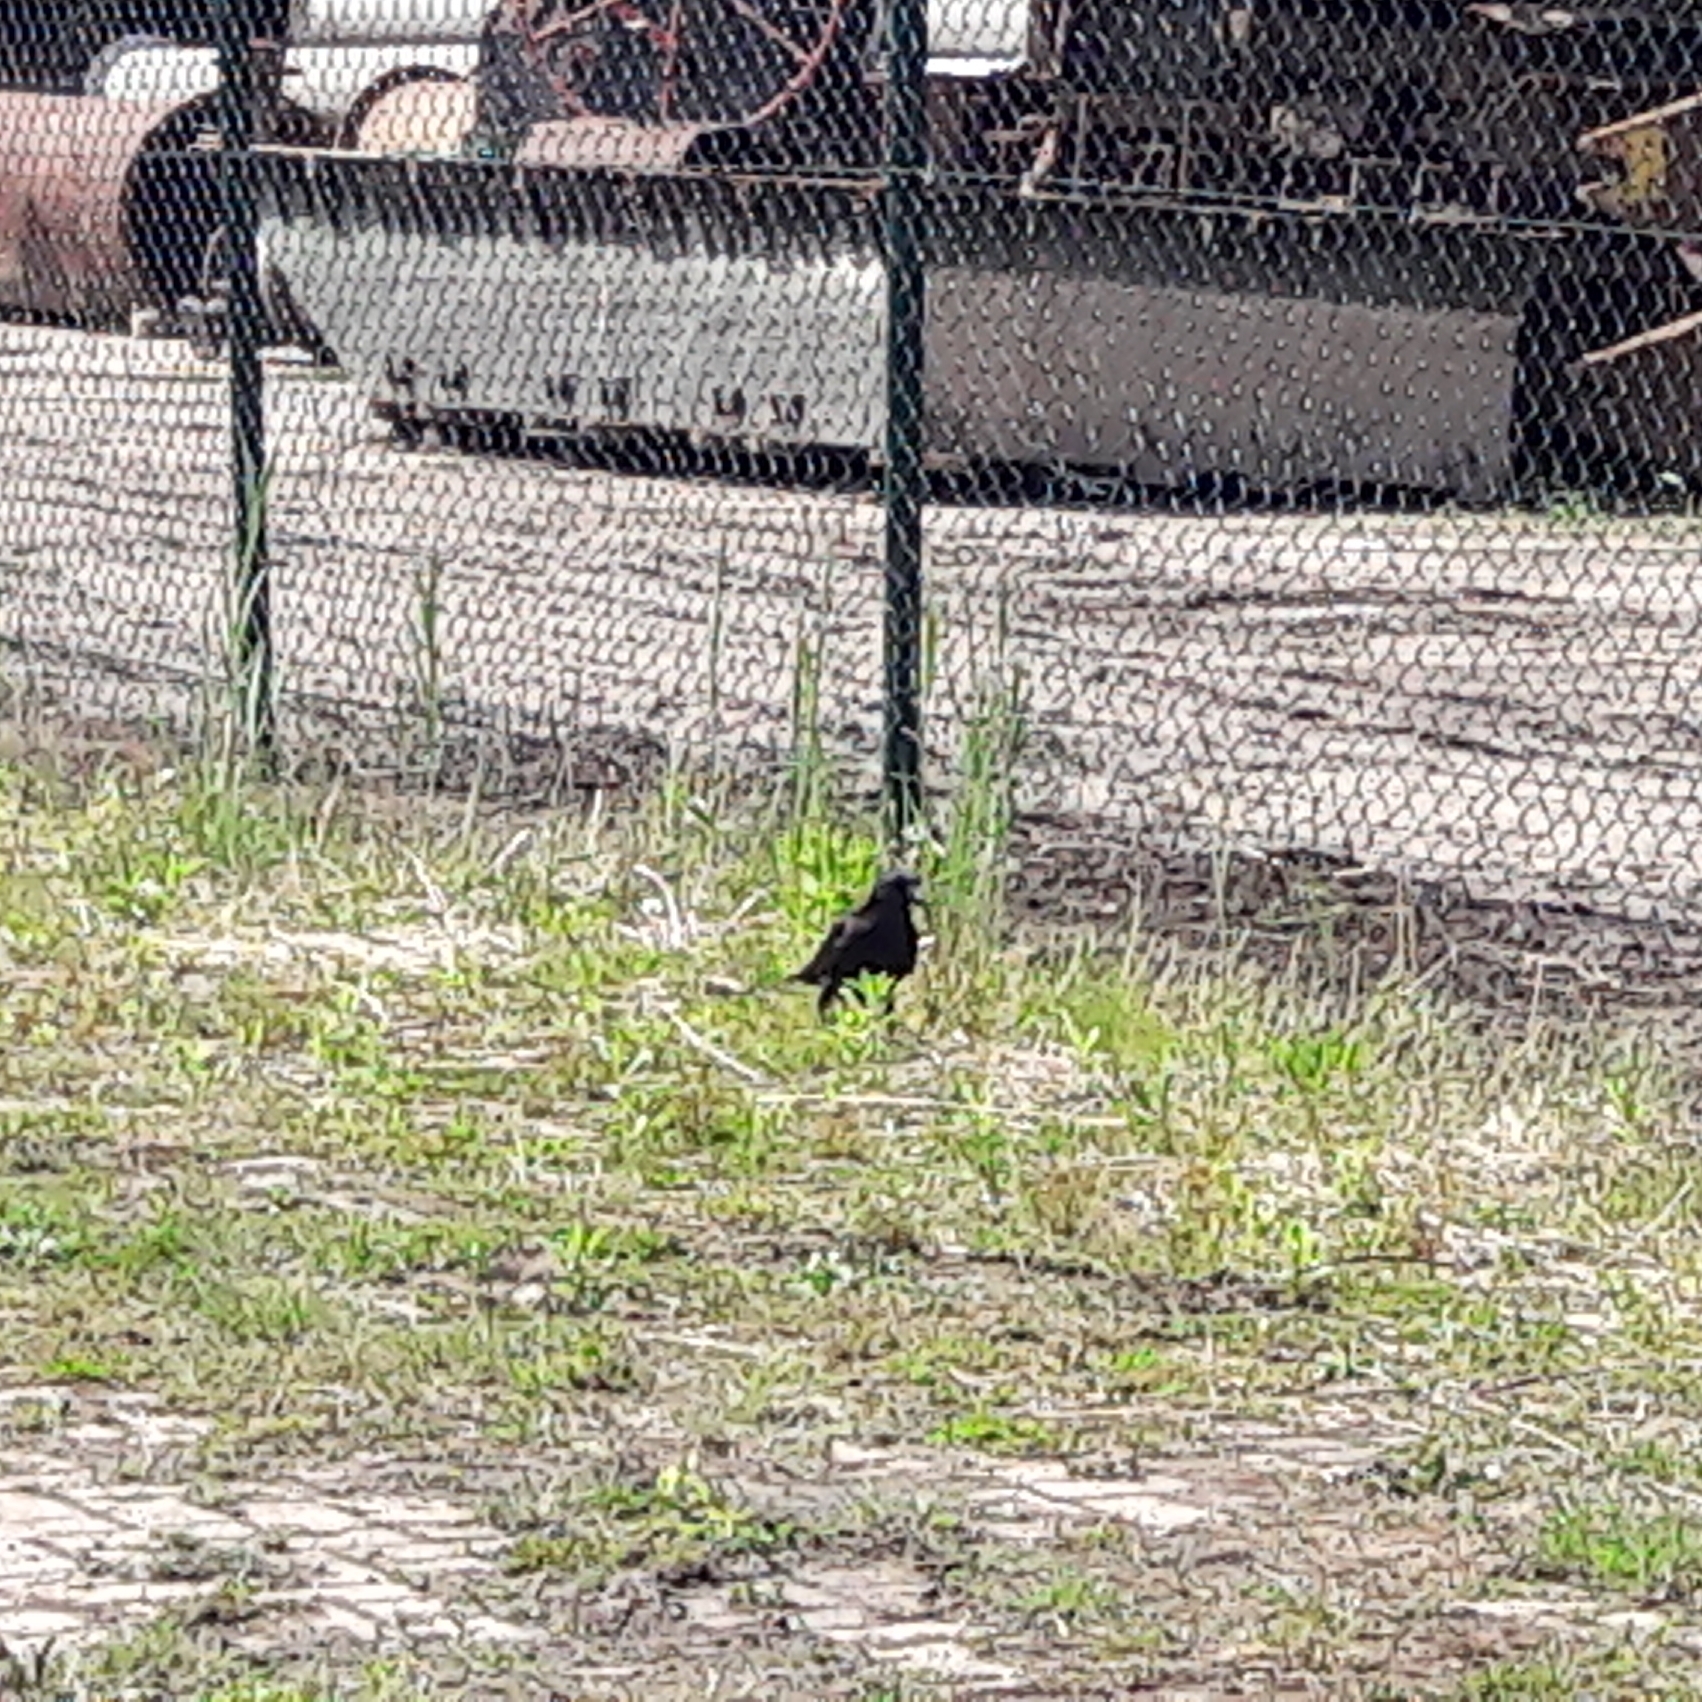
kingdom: Animalia
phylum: Chordata
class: Aves
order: Passeriformes
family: Corvidae
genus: Corvus
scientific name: Corvus corone
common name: Carrion crow
